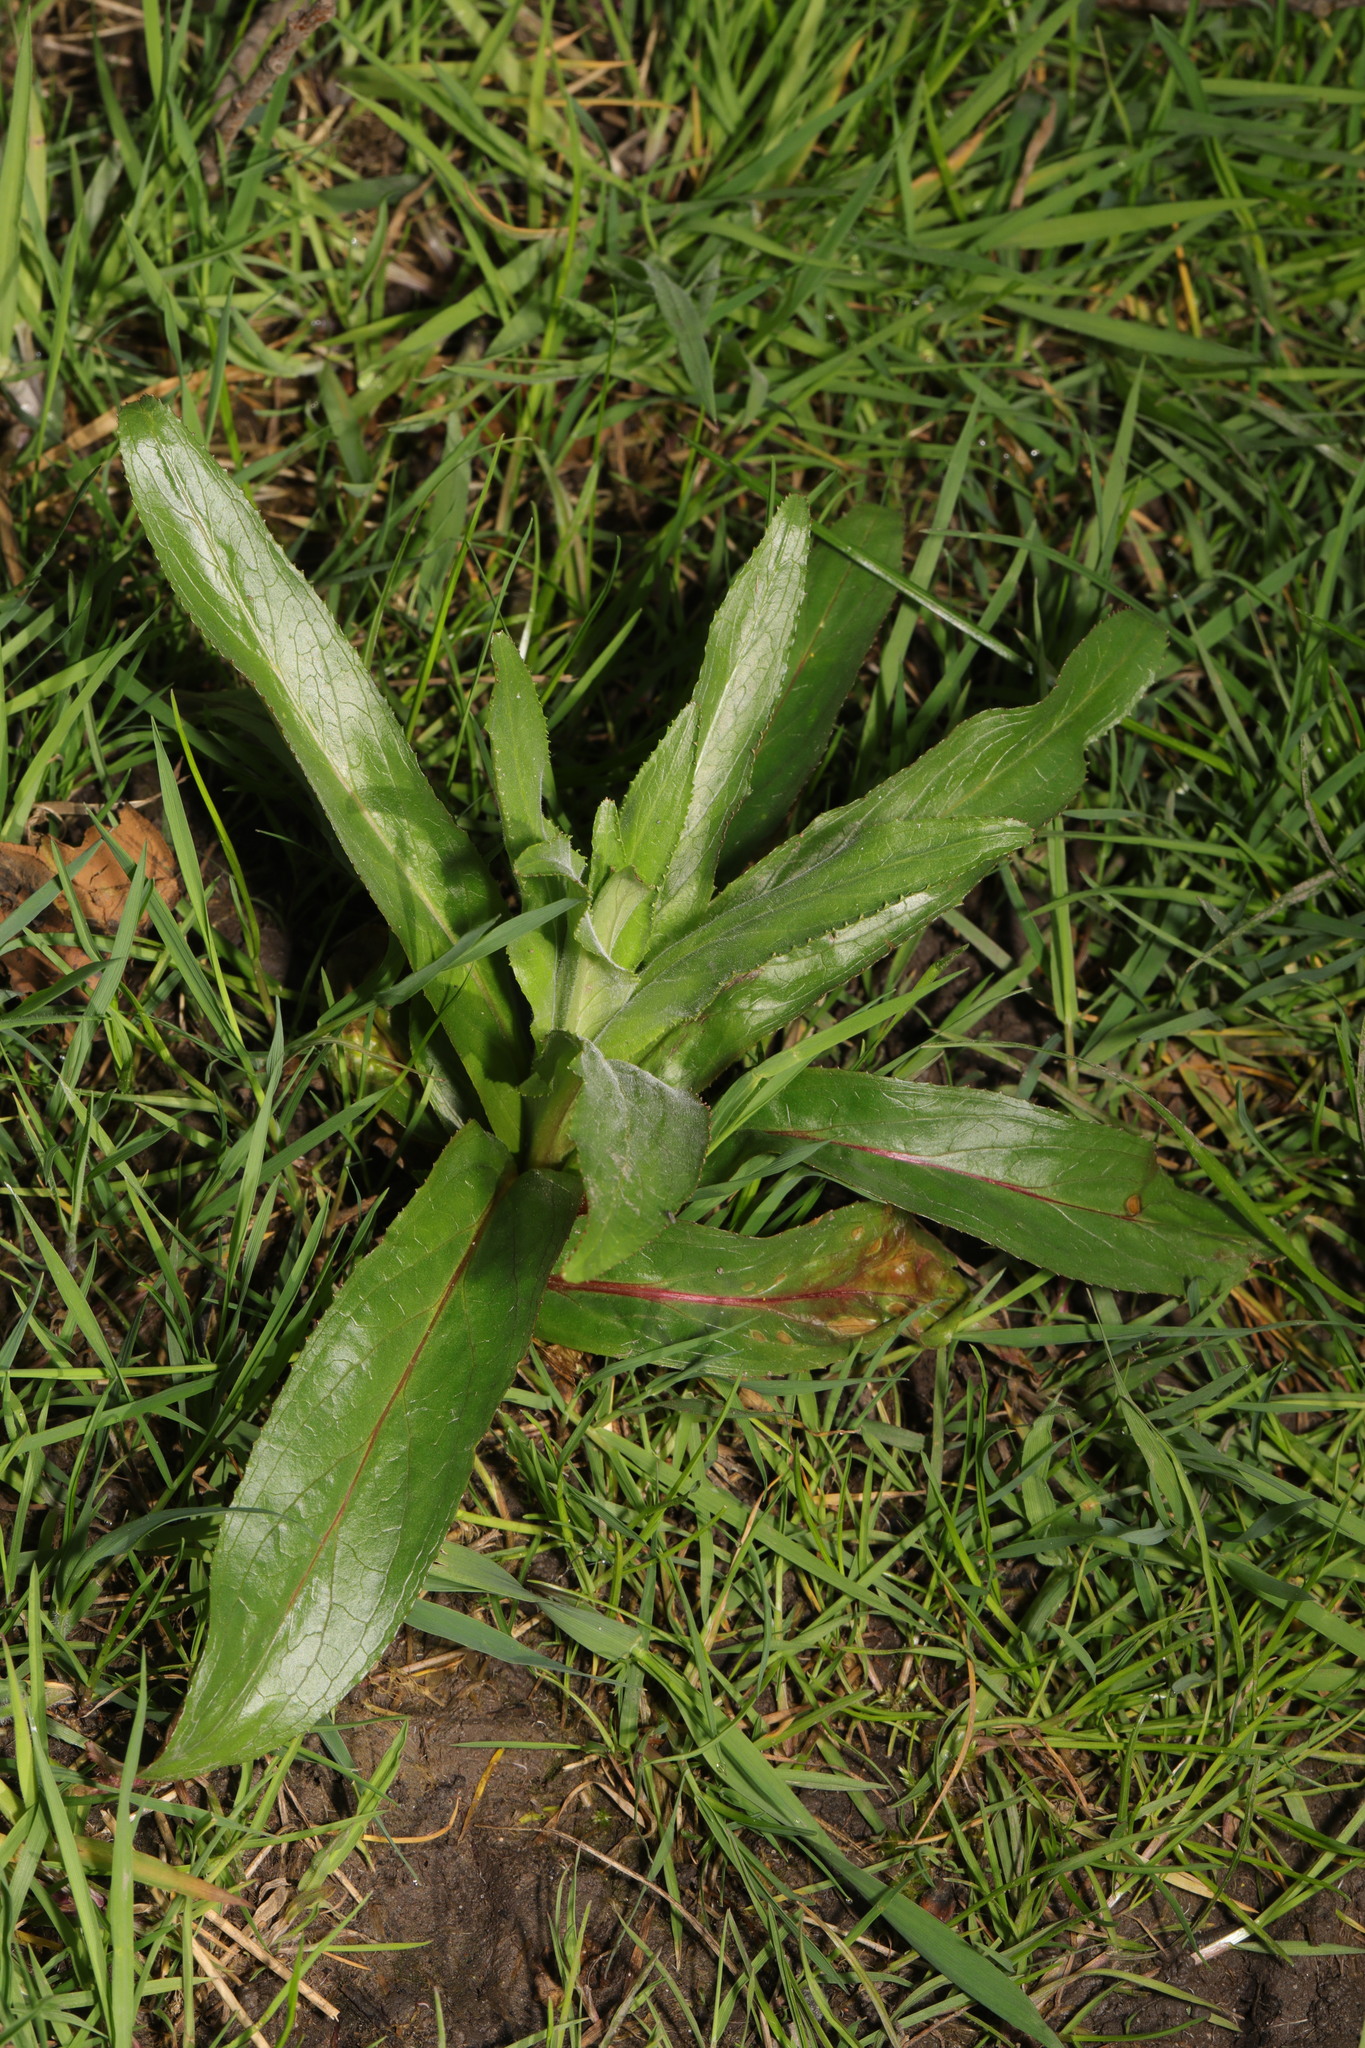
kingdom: Plantae
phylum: Tracheophyta
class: Magnoliopsida
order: Myrtales
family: Onagraceae
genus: Epilobium
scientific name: Epilobium hirsutum
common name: Great willowherb
